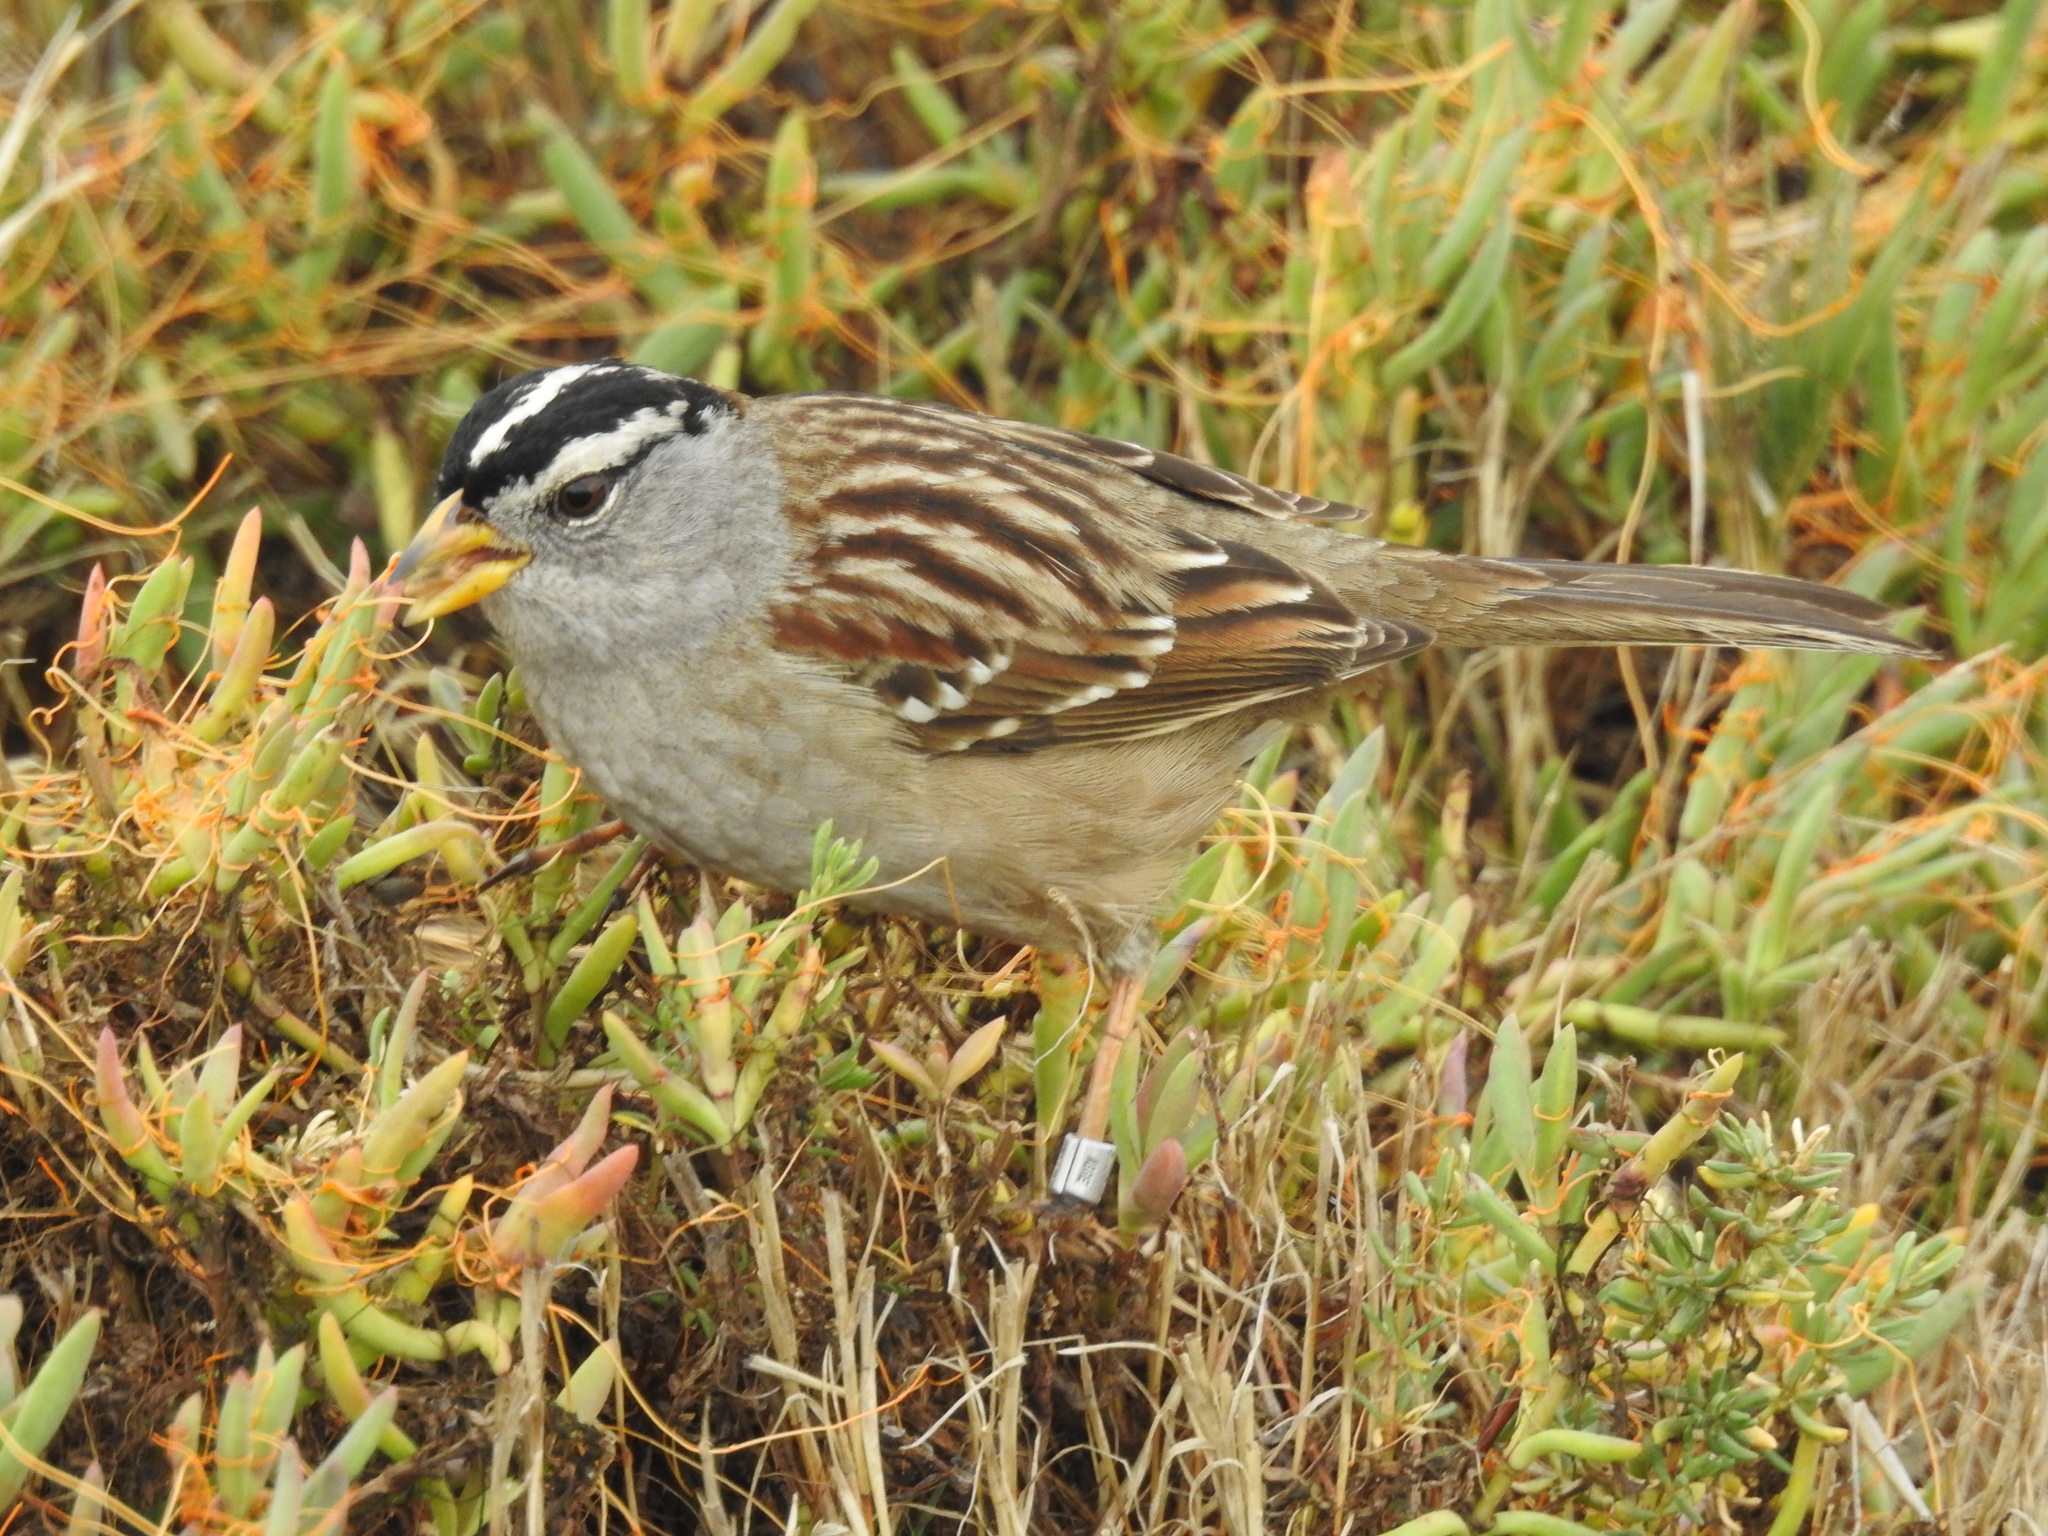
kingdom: Animalia
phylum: Chordata
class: Aves
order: Passeriformes
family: Passerellidae
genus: Zonotrichia
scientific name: Zonotrichia leucophrys
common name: White-crowned sparrow
